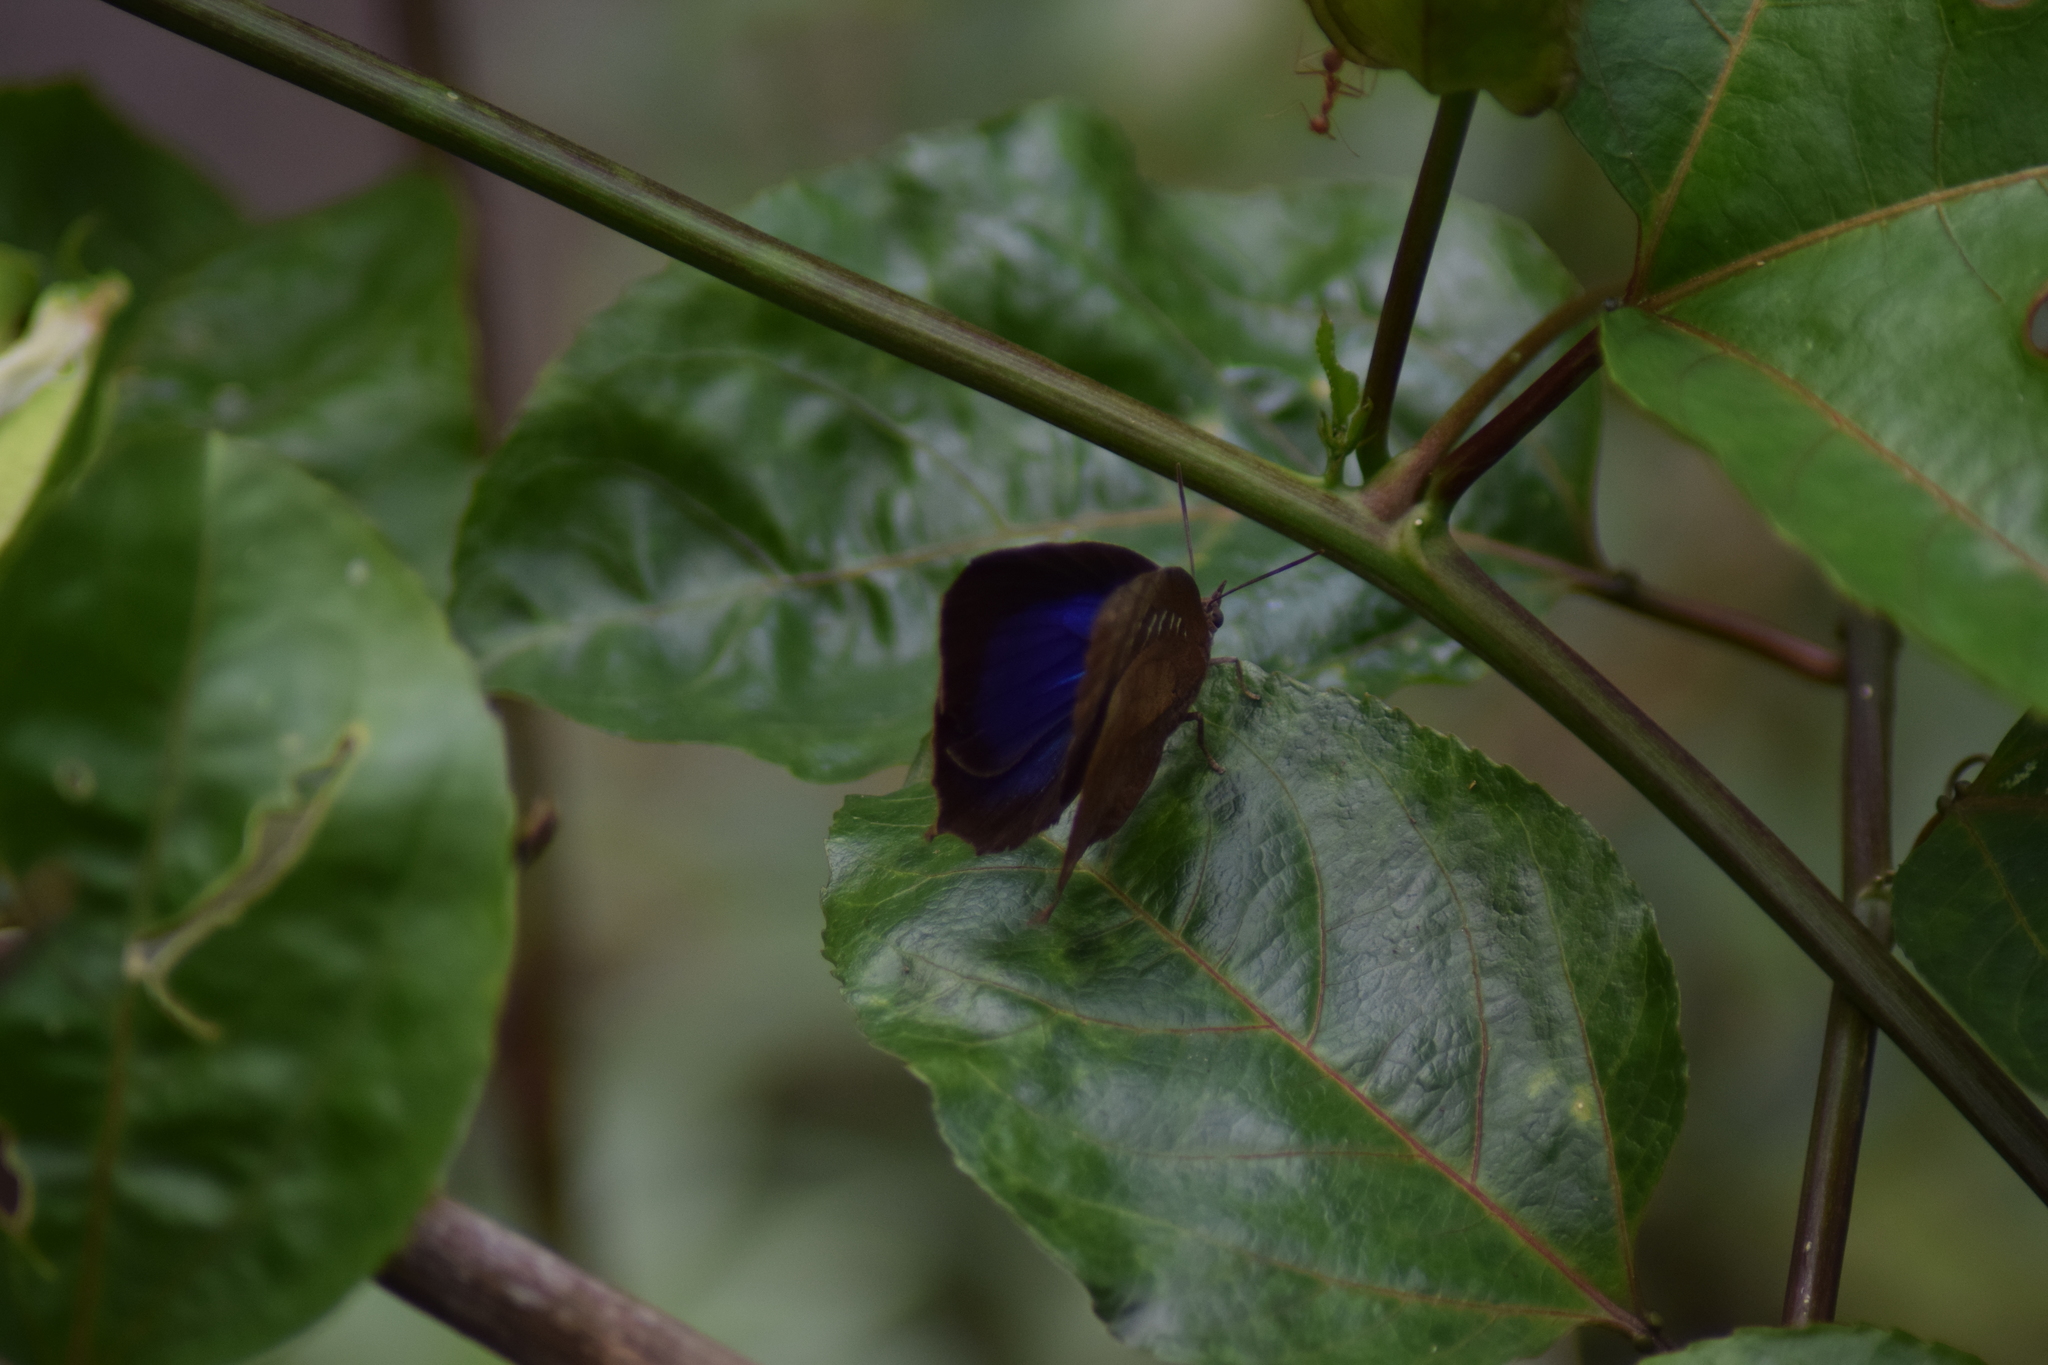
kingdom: Animalia
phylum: Arthropoda
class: Insecta
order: Lepidoptera
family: Lycaenidae
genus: Arhopala
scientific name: Arhopala centaurus
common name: Dull oak-blue
